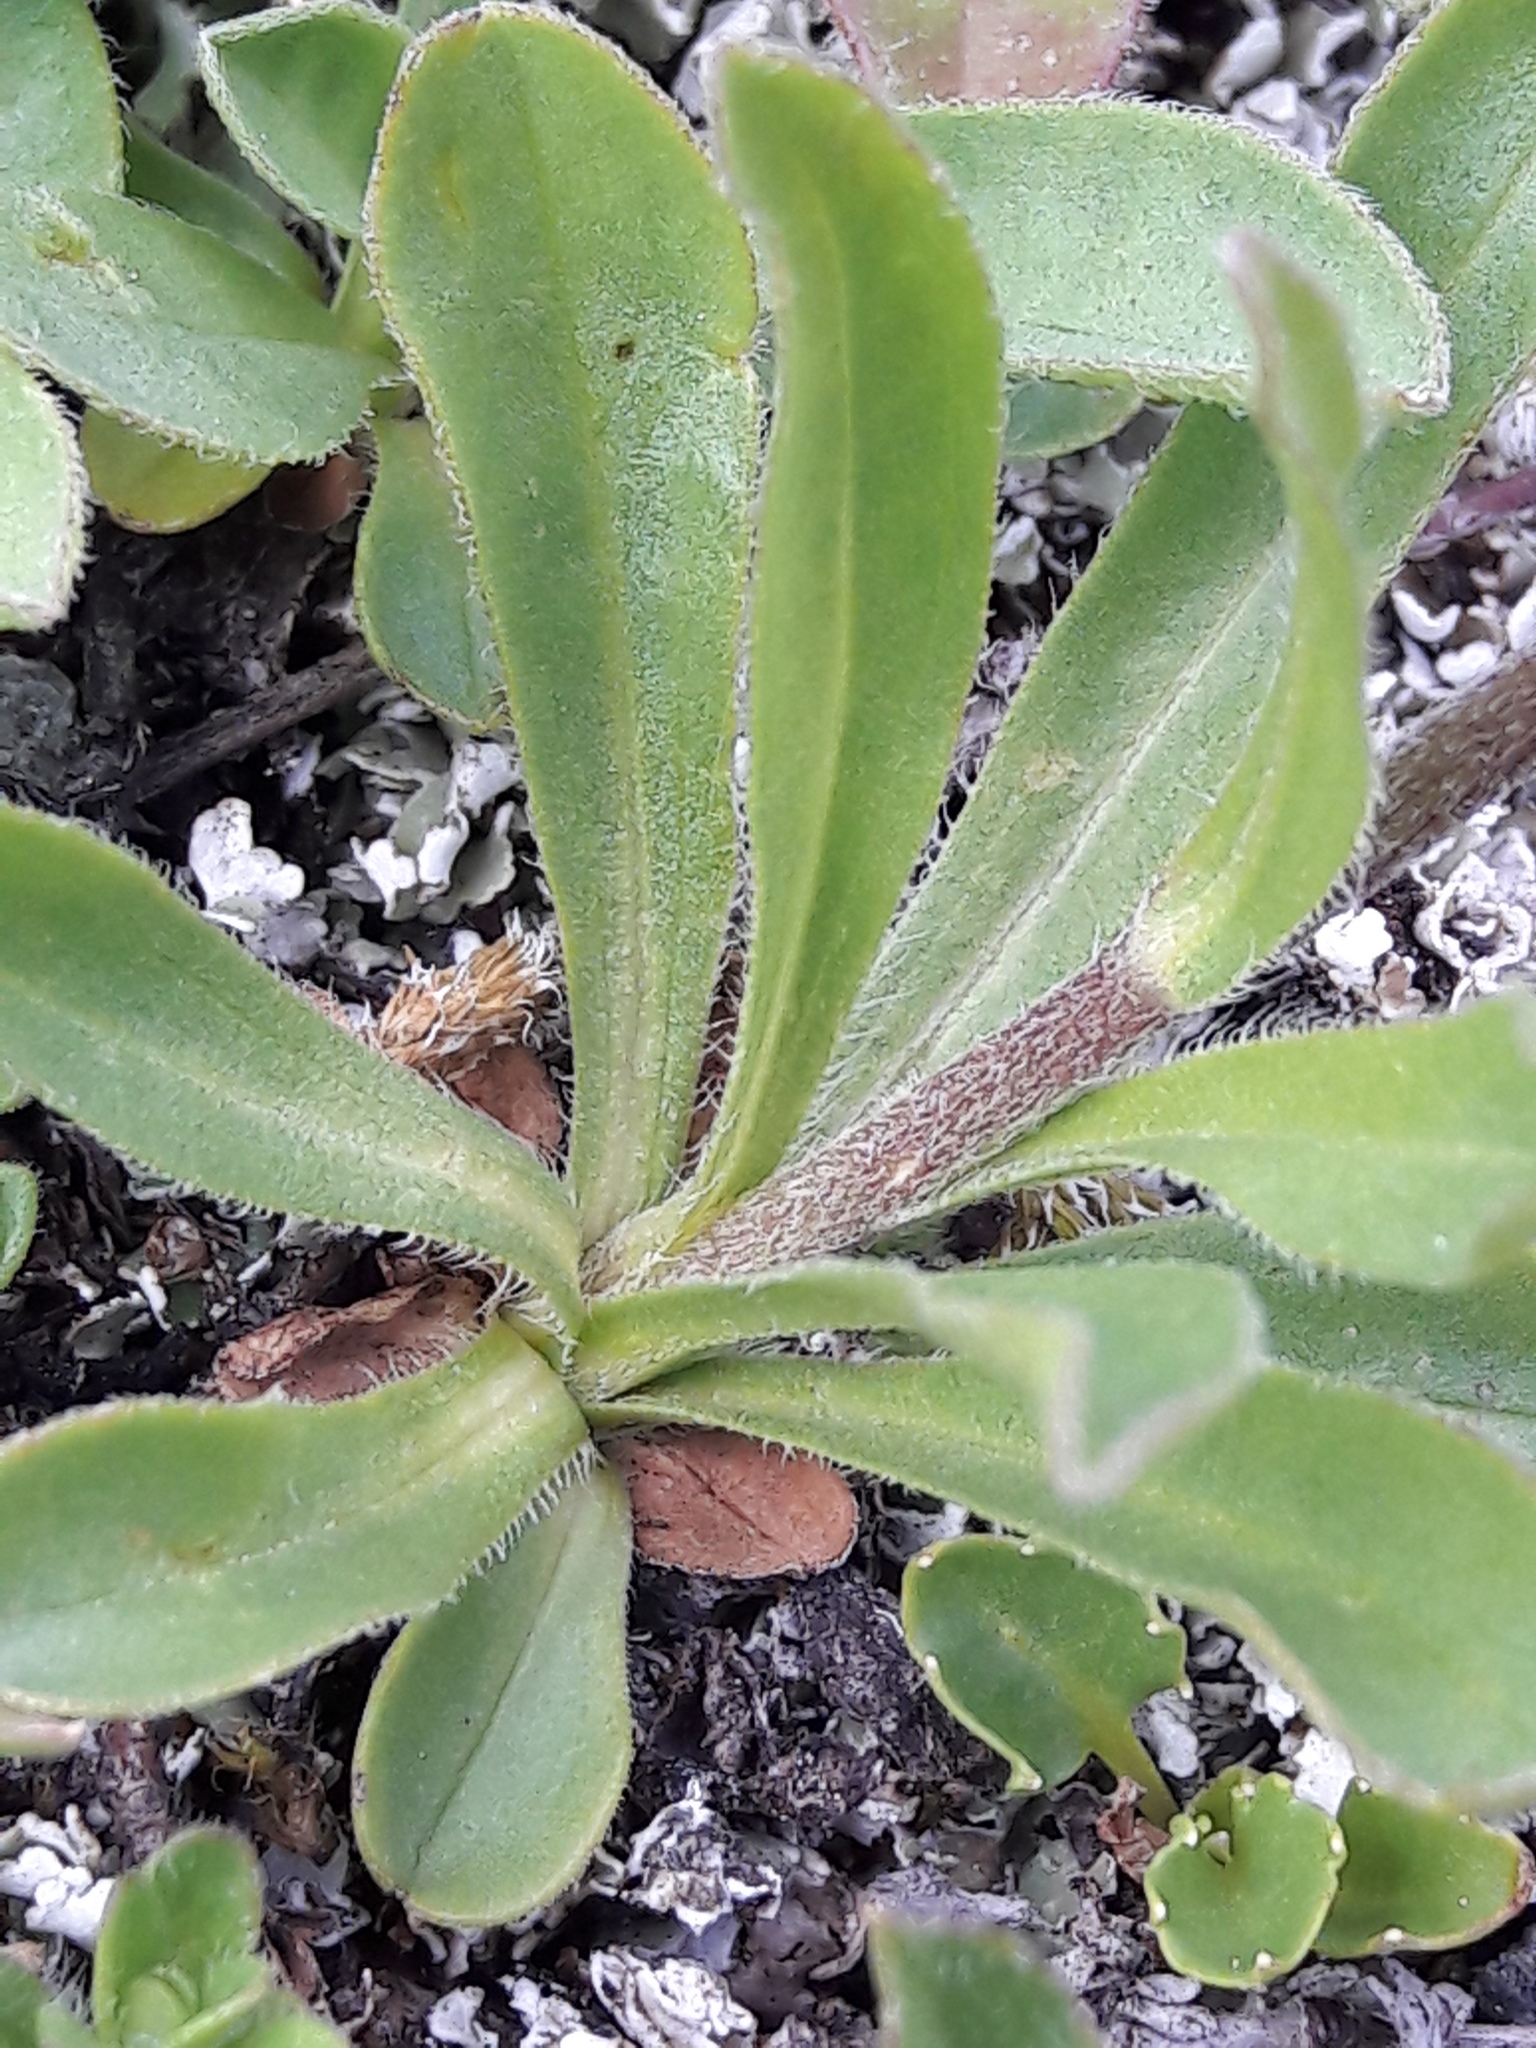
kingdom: Plantae
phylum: Tracheophyta
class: Magnoliopsida
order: Asterales
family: Asteraceae
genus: Aster
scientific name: Aster alpinus
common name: Alpine aster
